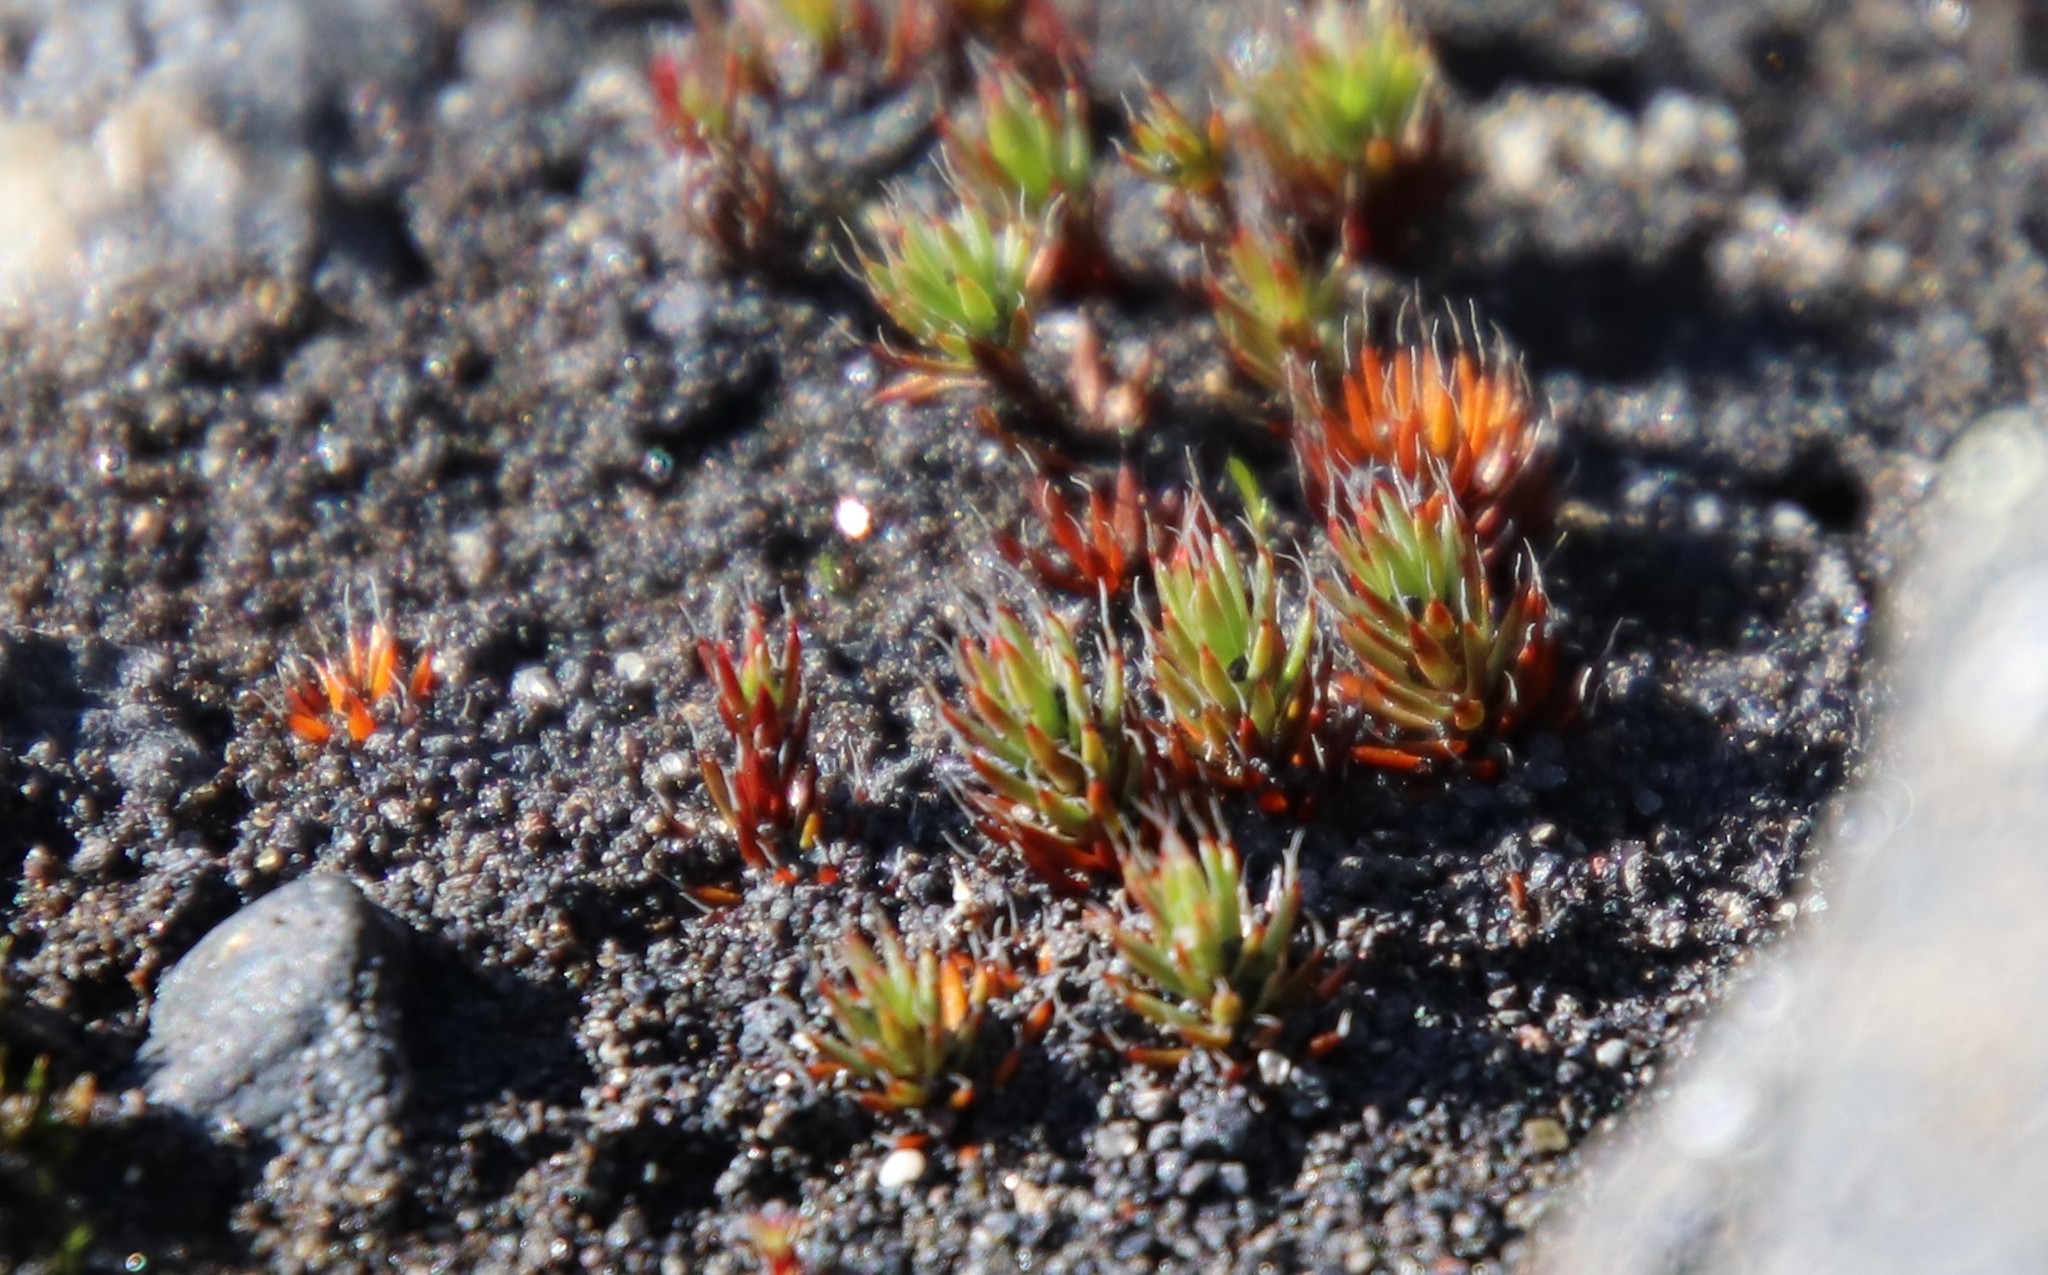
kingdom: Plantae
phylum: Bryophyta
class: Polytrichopsida
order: Polytrichales
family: Polytrichaceae
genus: Polytrichum
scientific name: Polytrichum piliferum
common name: Bristly haircap
